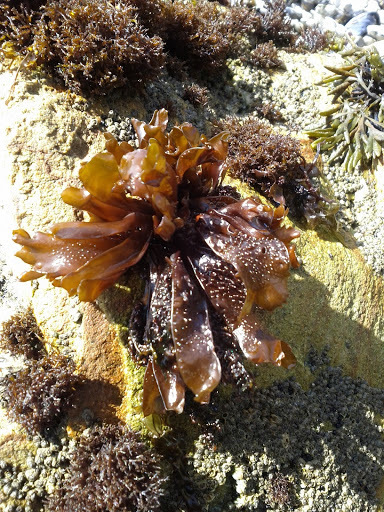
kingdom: Chromista
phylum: Ochrophyta
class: Phaeophyceae
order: Fucales
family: Fucaceae
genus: Fucus
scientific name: Fucus distichus
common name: Rockweed
